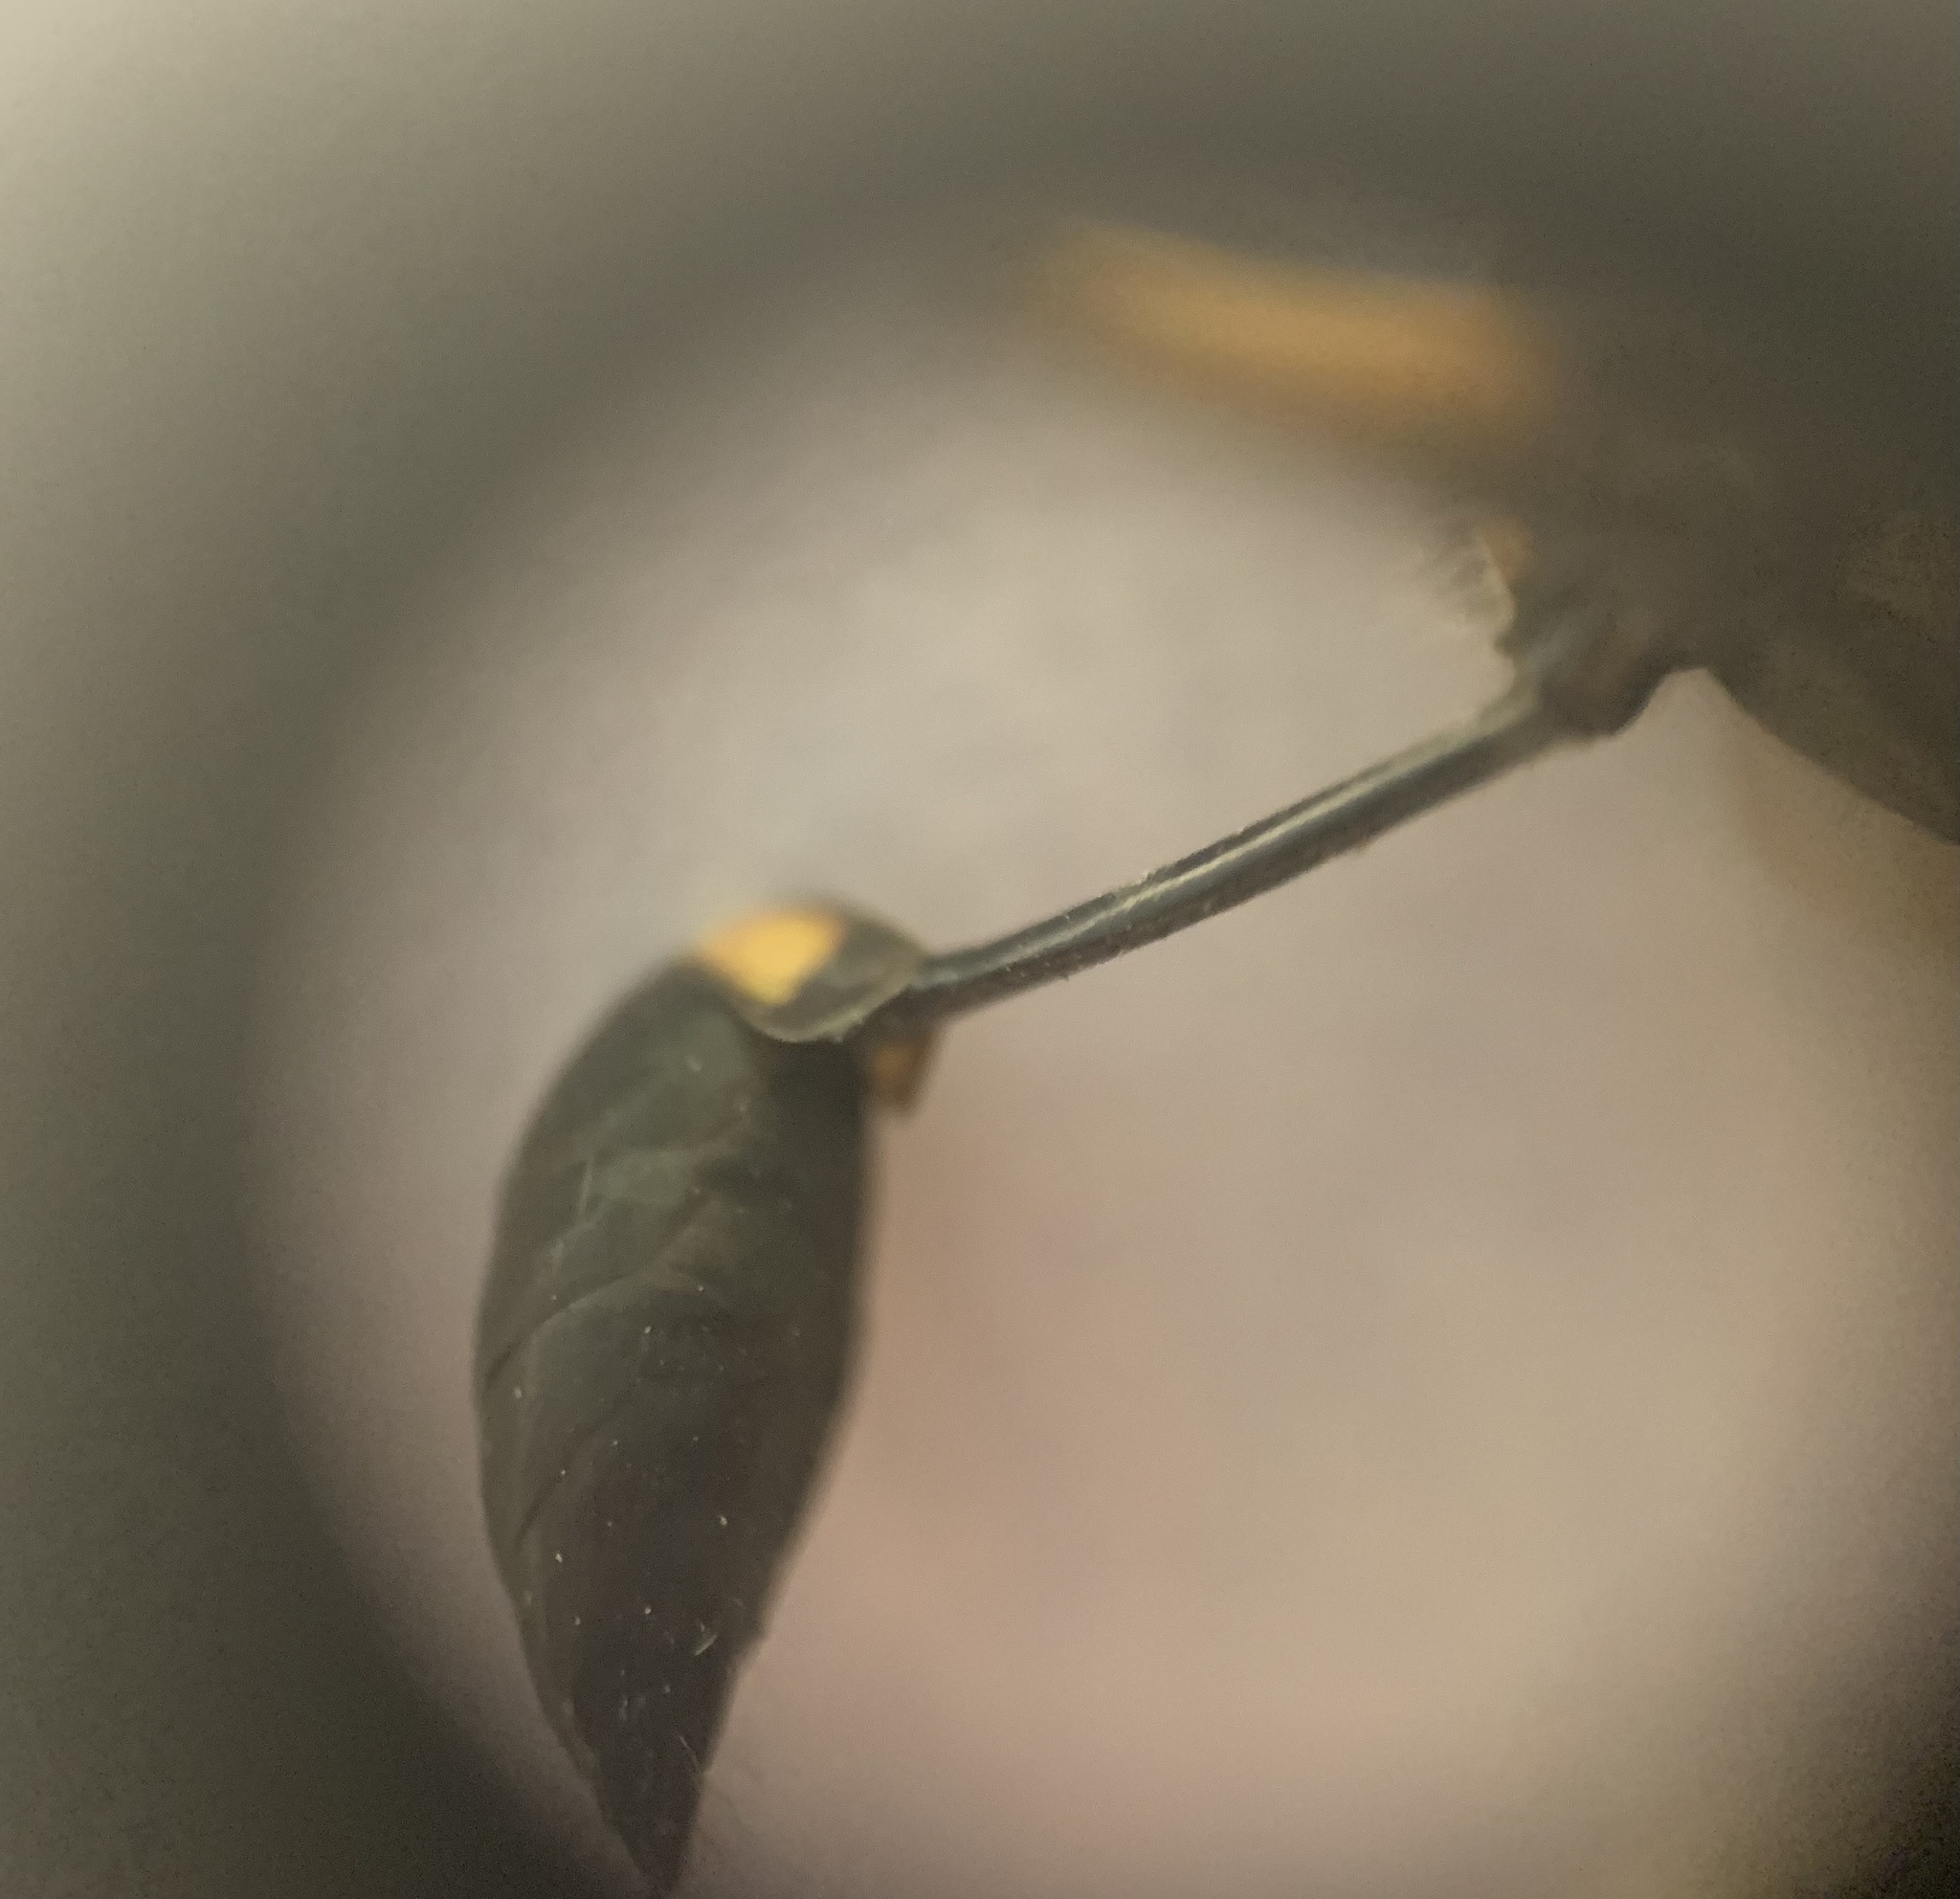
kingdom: Animalia
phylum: Arthropoda
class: Insecta
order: Hymenoptera
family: Sphecidae
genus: Sceliphron
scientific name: Sceliphron caementarium
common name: Mud dauber
